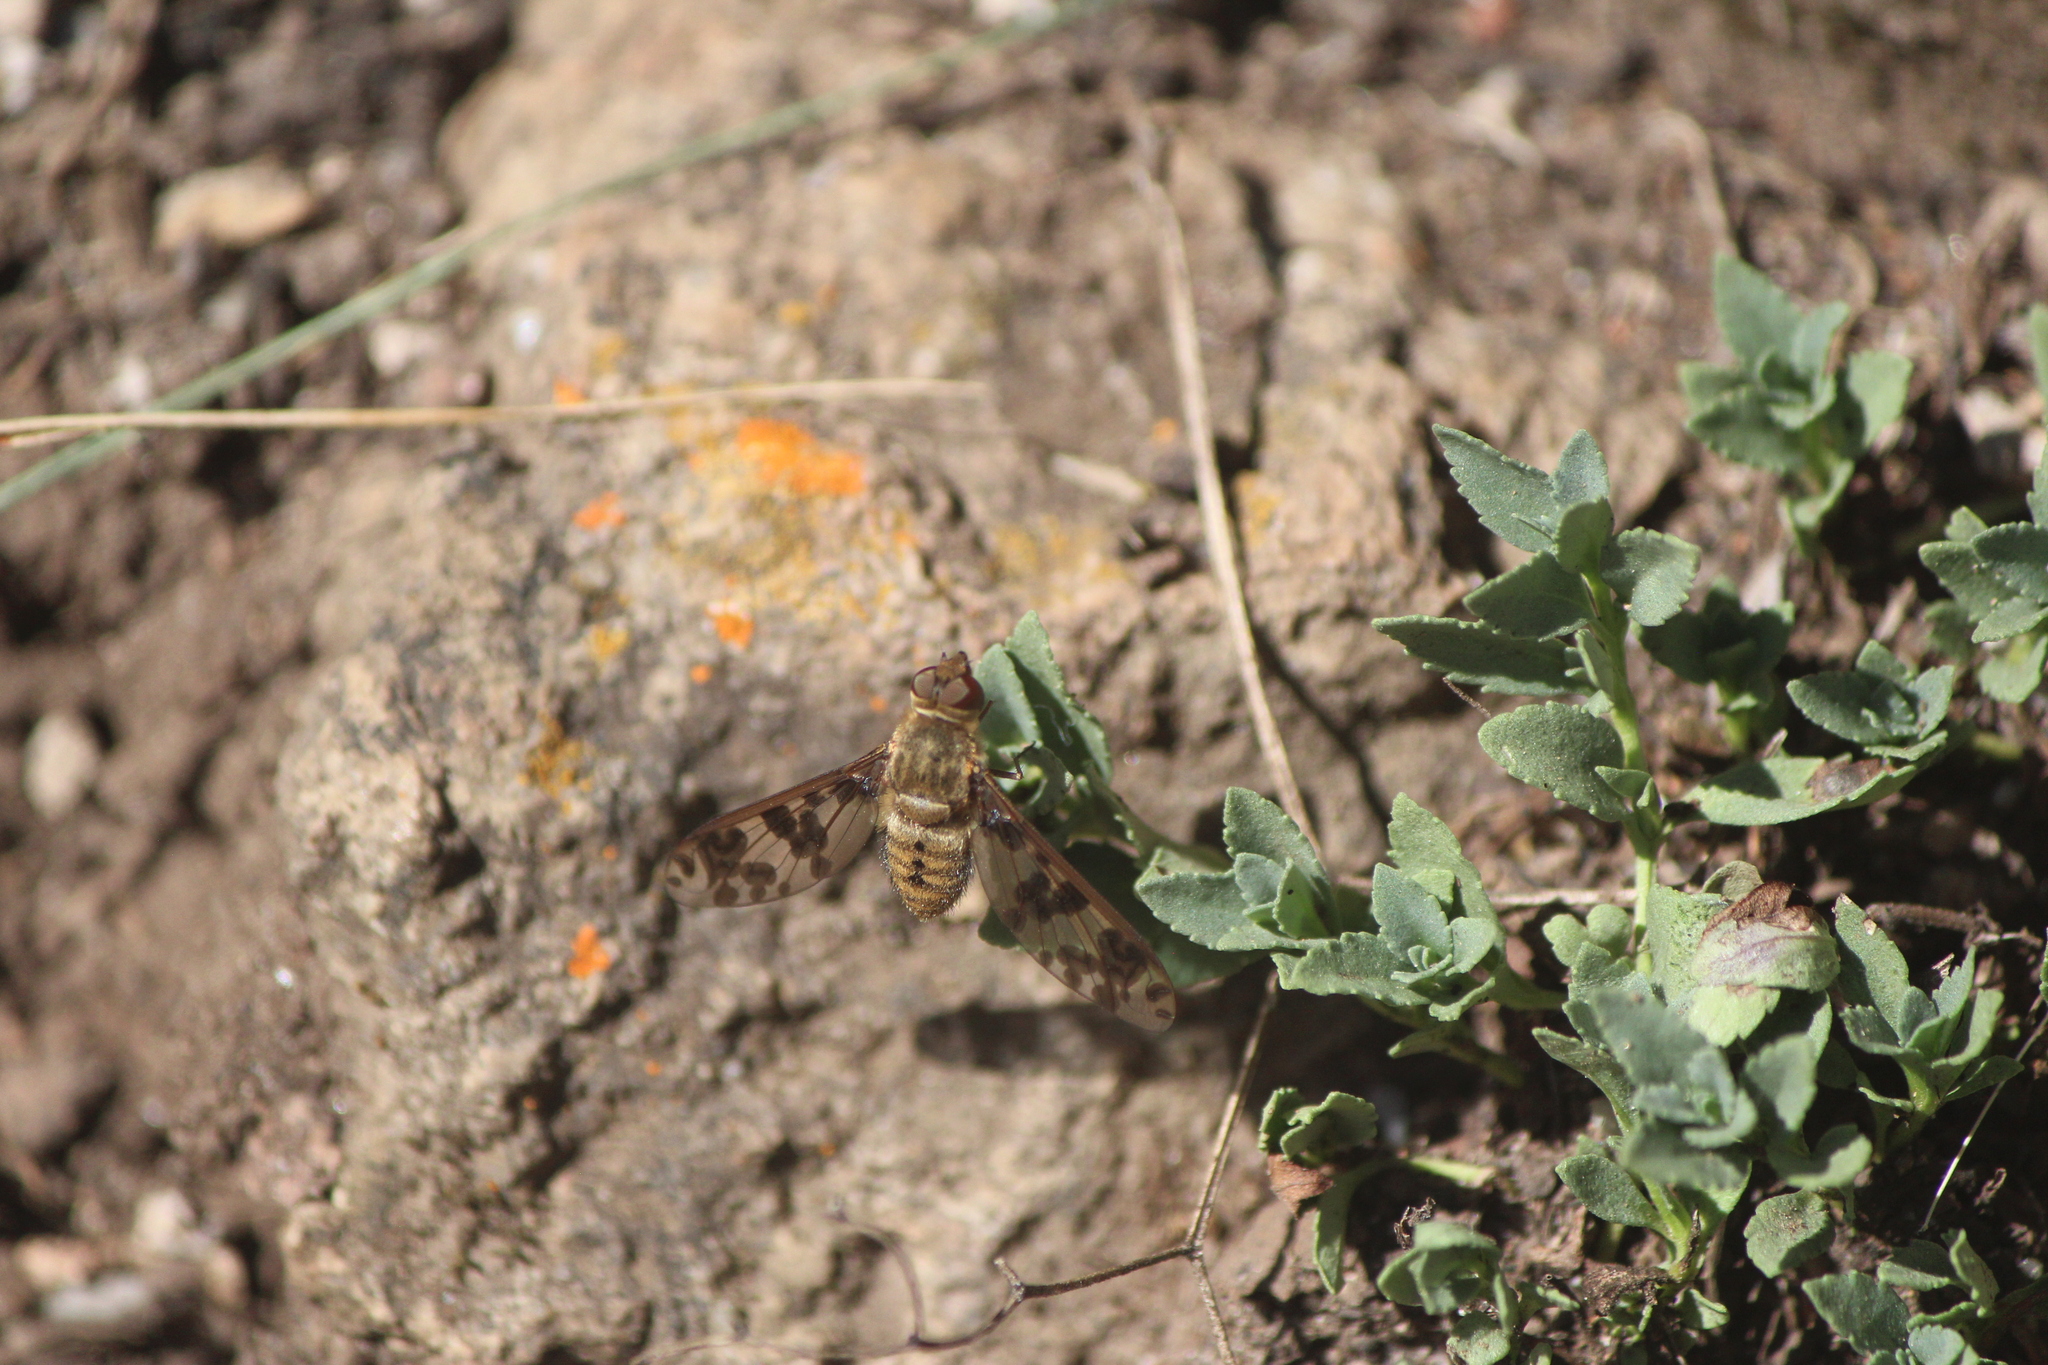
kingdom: Animalia
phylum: Arthropoda
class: Insecta
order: Diptera
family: Bombyliidae
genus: Dipalta
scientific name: Dipalta serpentina
